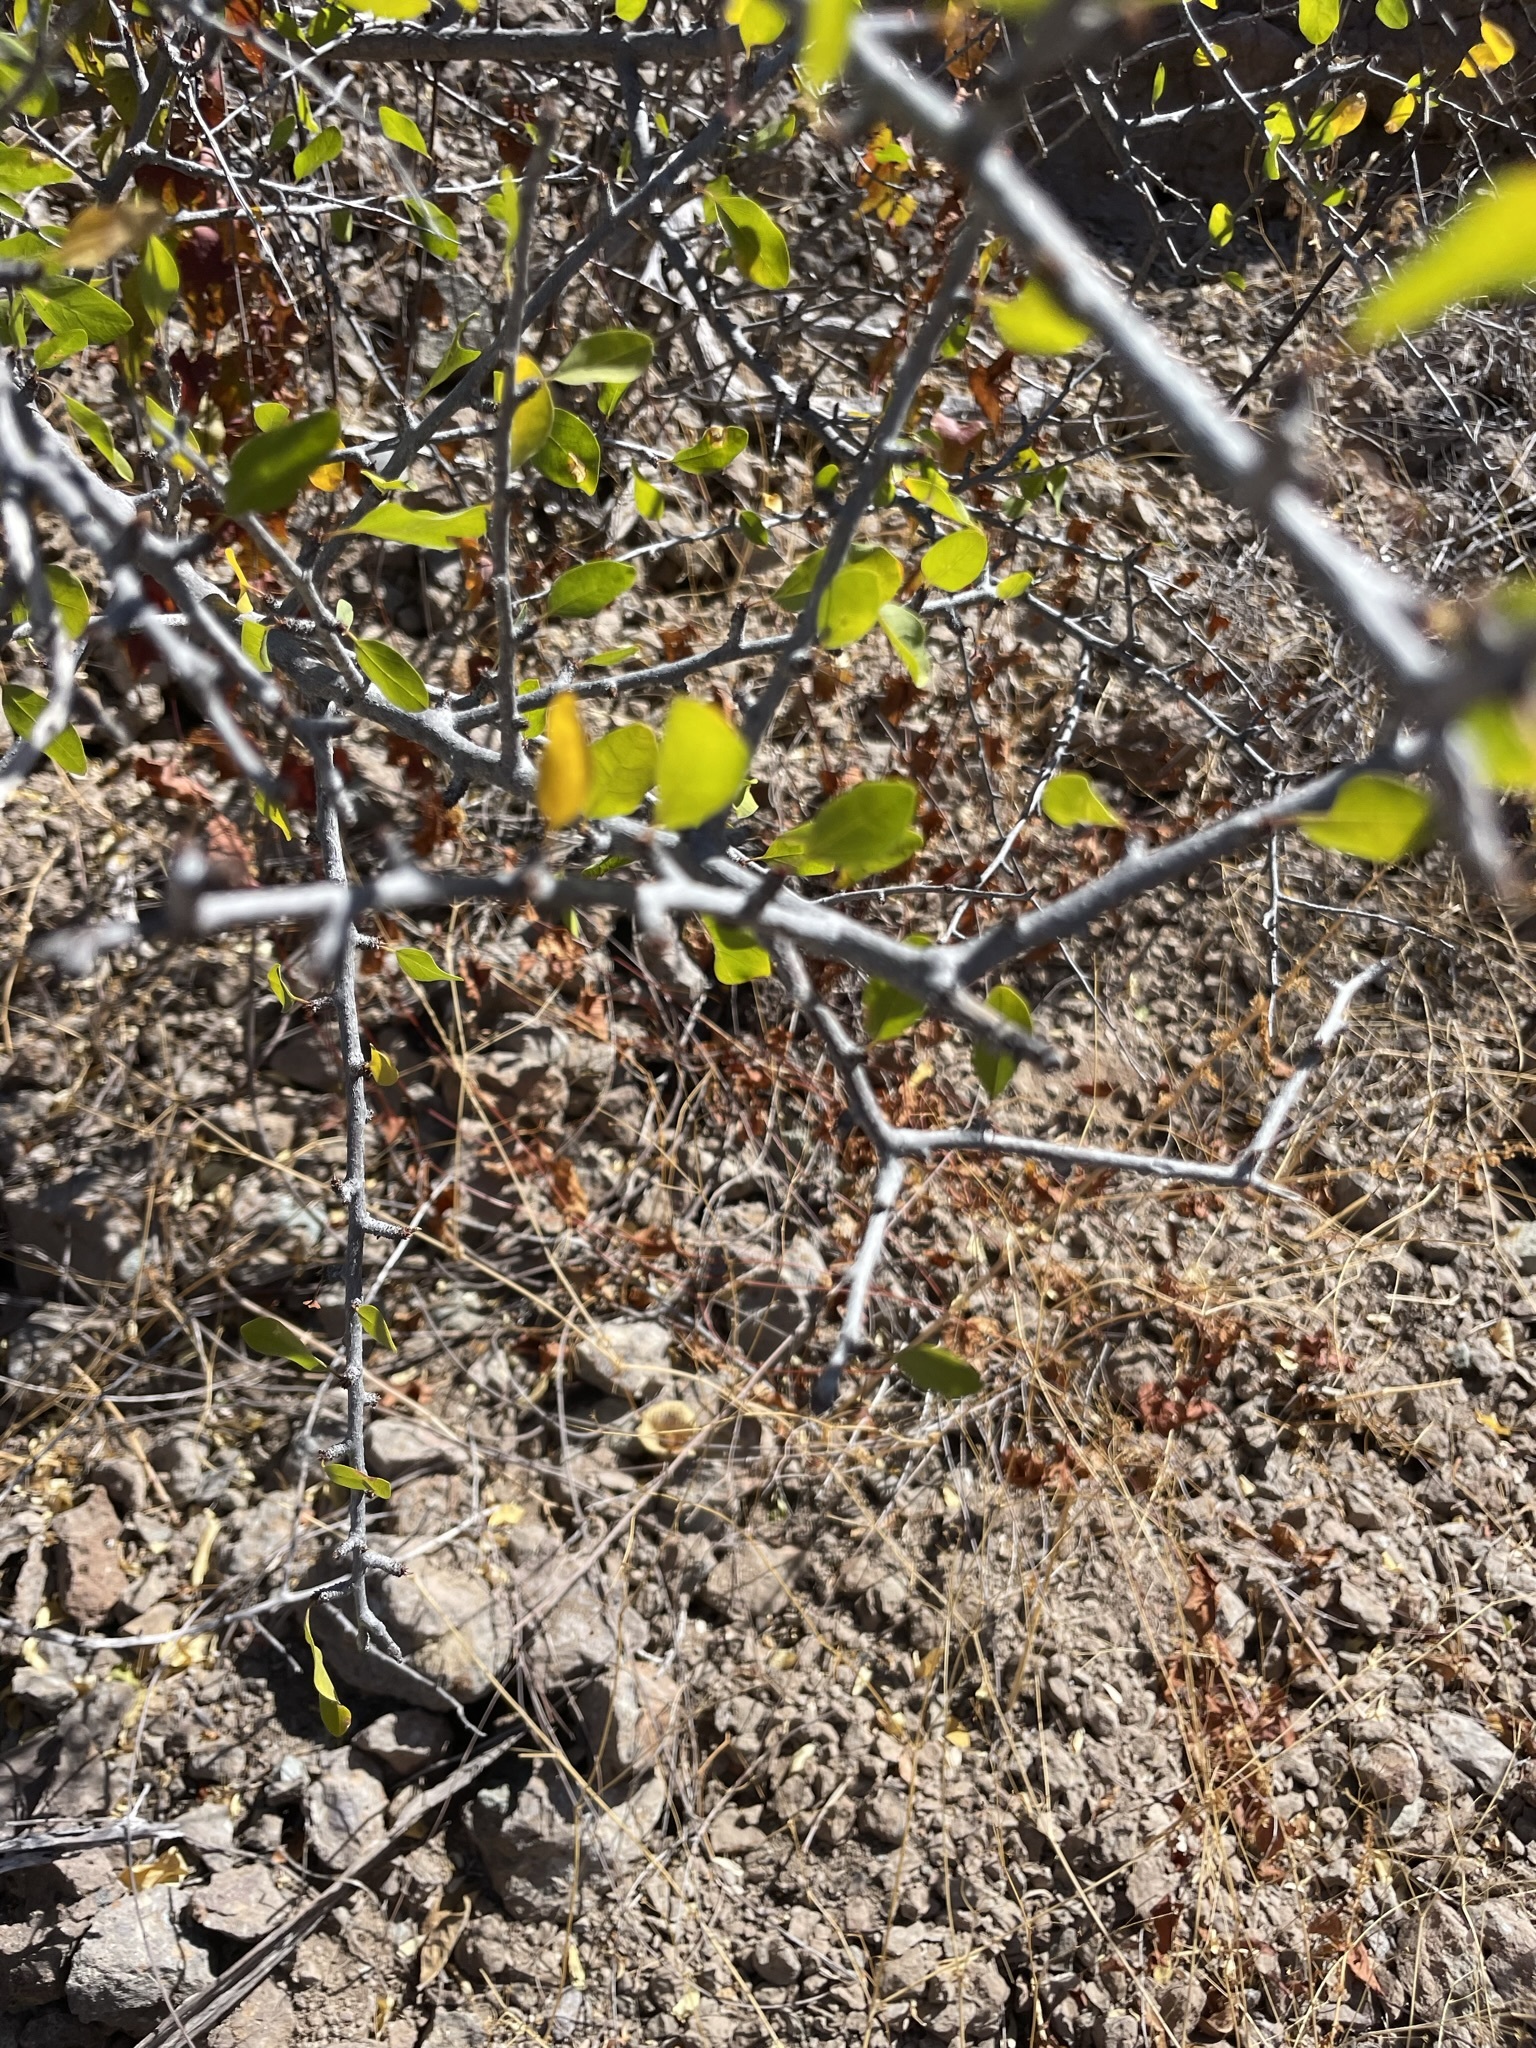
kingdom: Plantae
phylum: Tracheophyta
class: Magnoliopsida
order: Rosales
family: Rhamnaceae
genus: Colubrina
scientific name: Colubrina viridis
